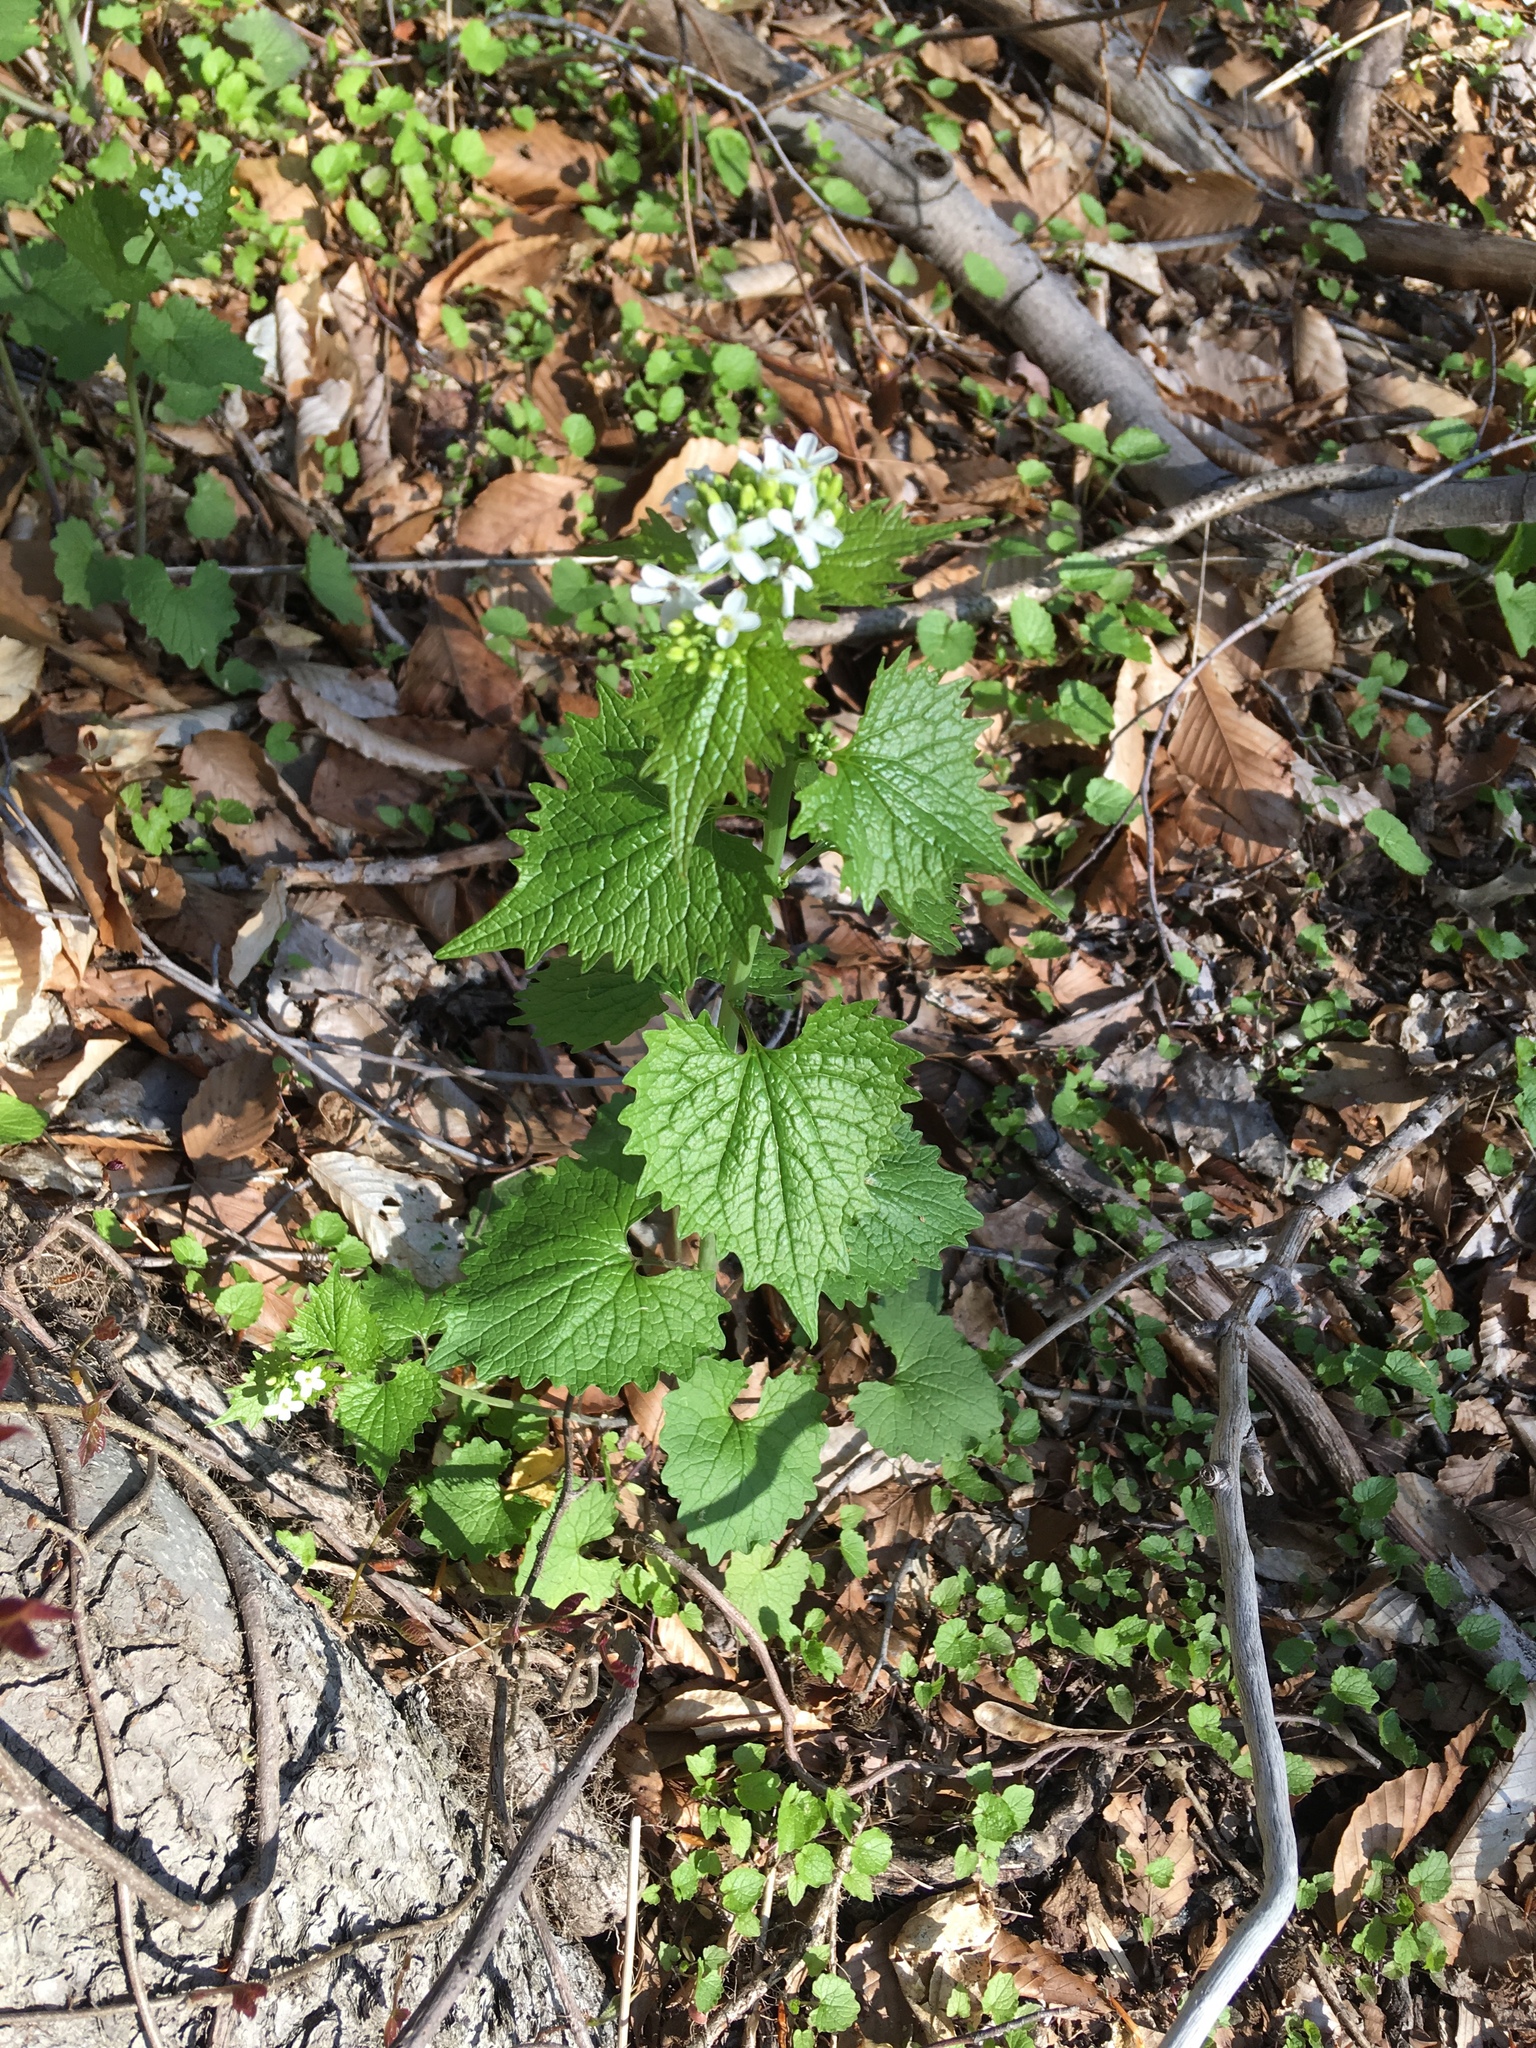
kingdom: Plantae
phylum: Tracheophyta
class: Magnoliopsida
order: Brassicales
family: Brassicaceae
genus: Alliaria
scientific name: Alliaria petiolata
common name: Garlic mustard
